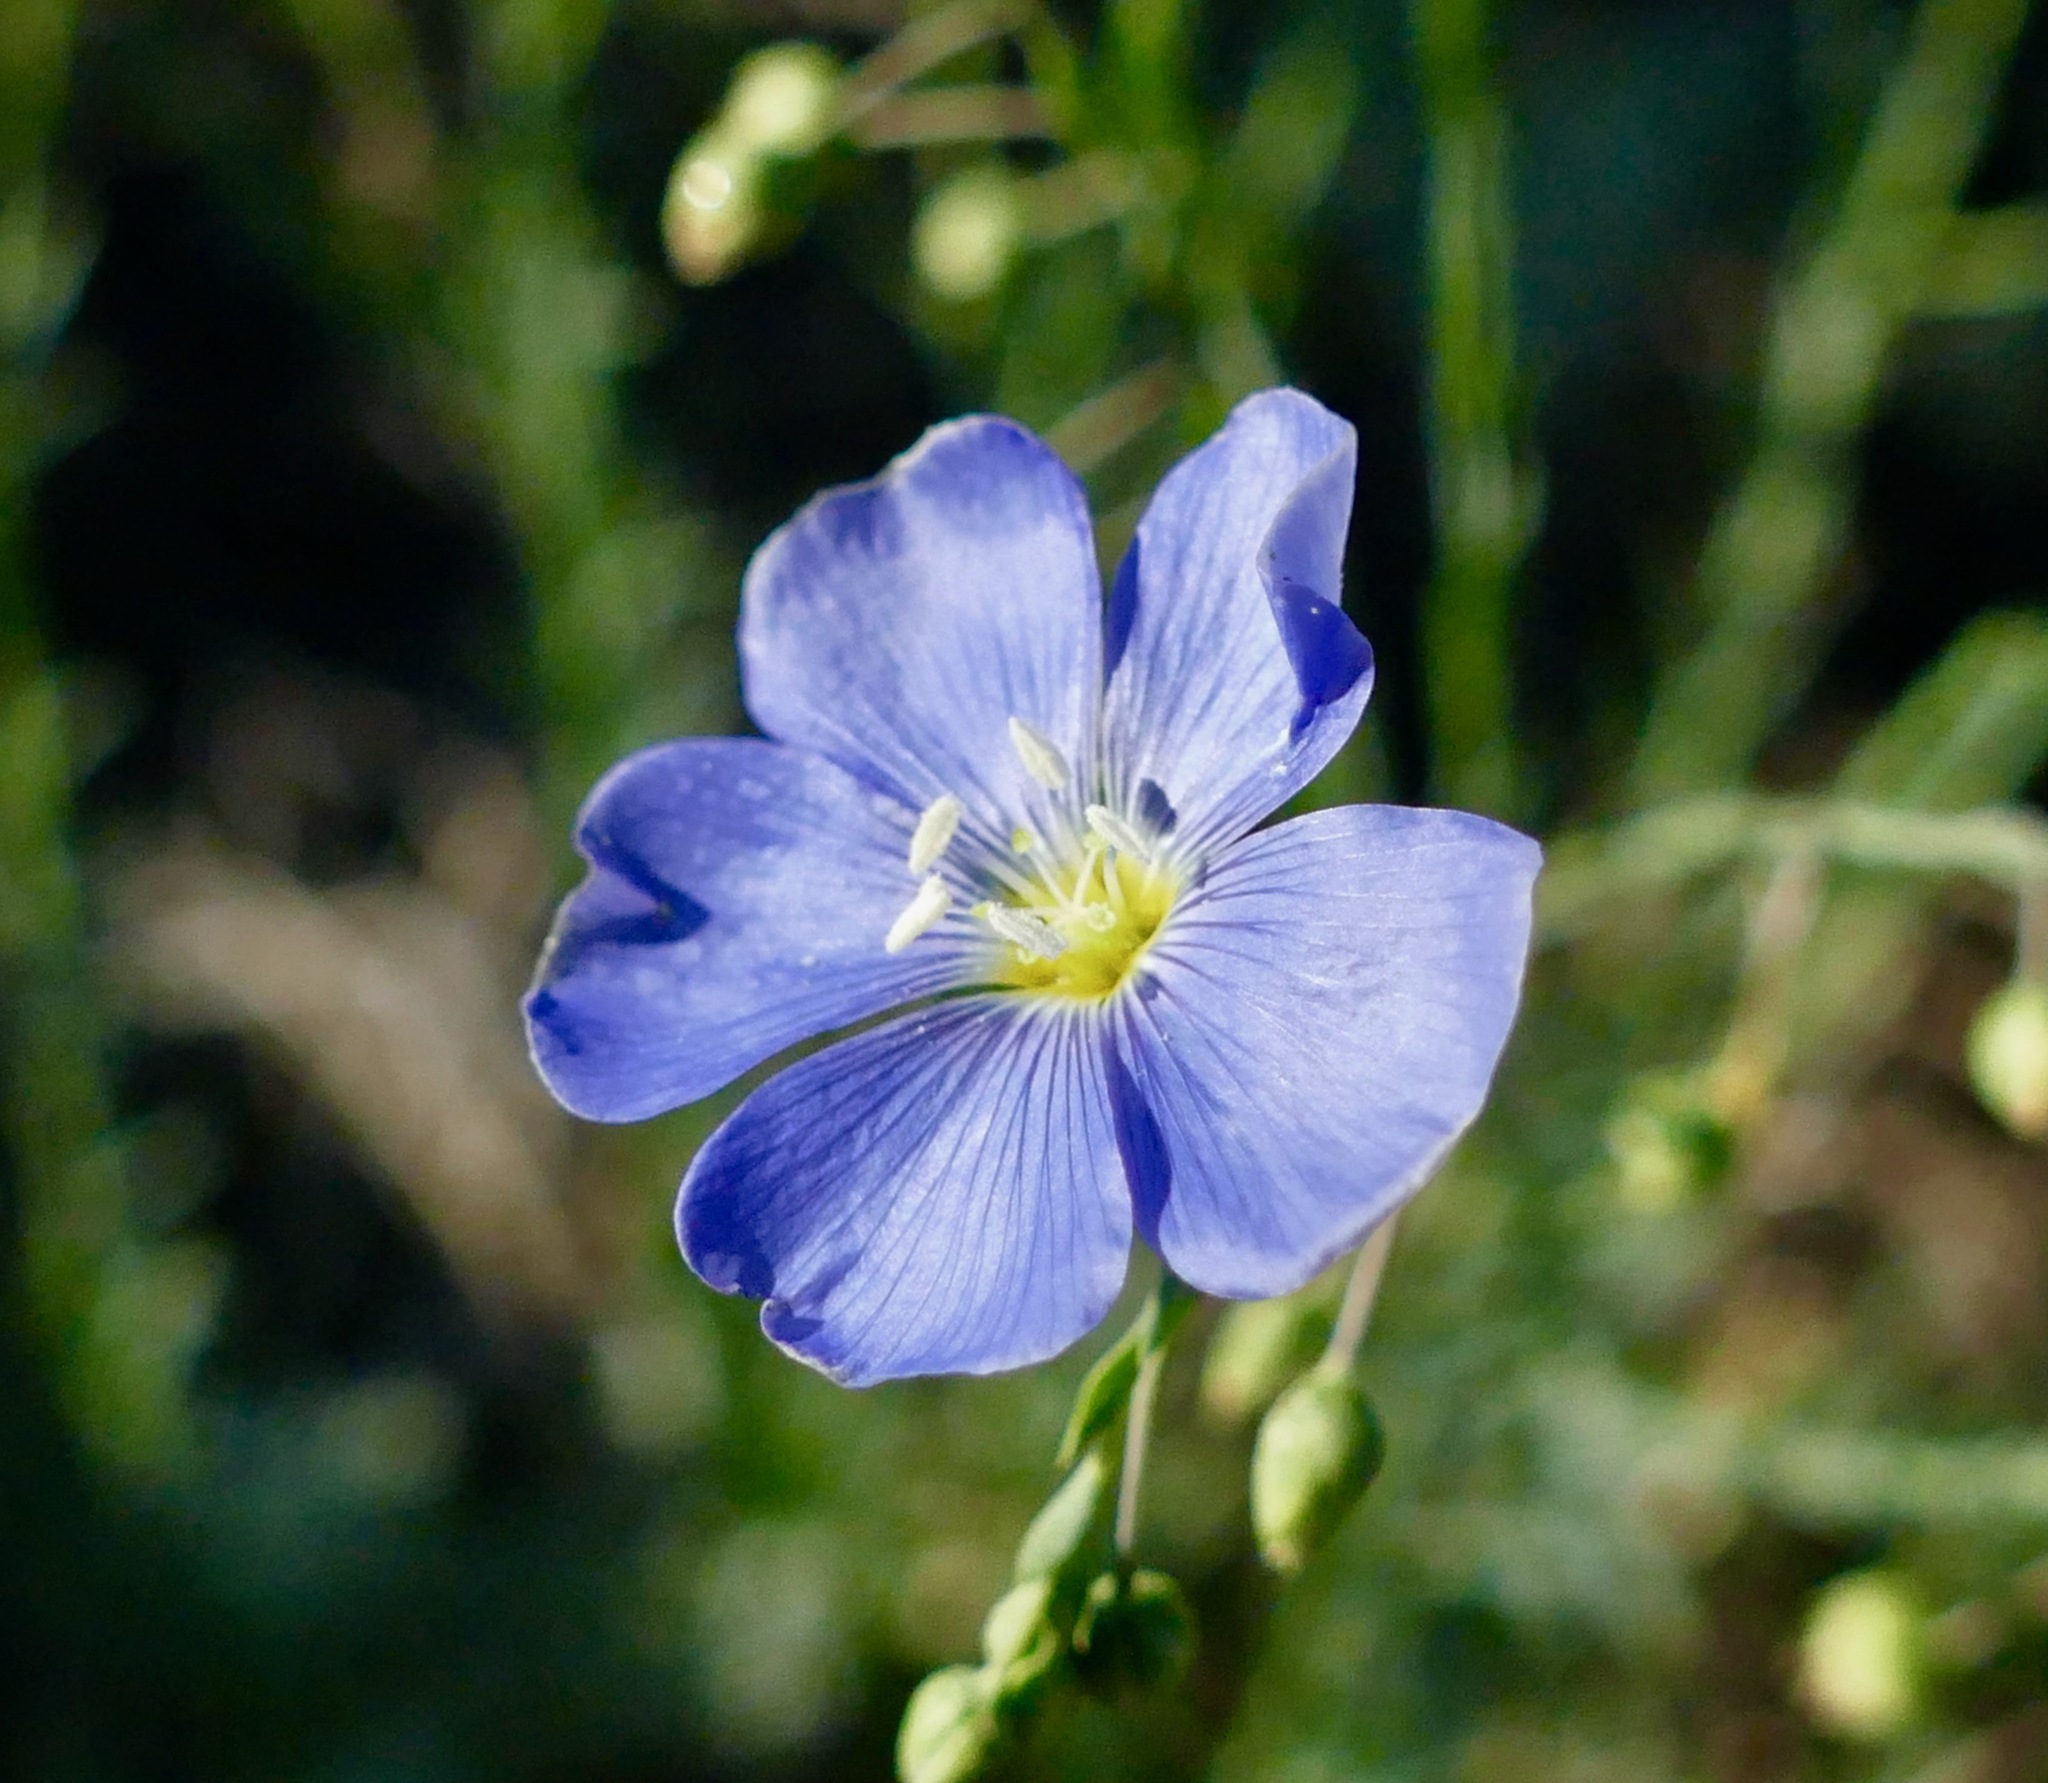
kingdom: Plantae
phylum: Tracheophyta
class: Magnoliopsida
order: Malpighiales
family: Linaceae
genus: Linum
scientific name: Linum lewisii
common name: Prairie flax
